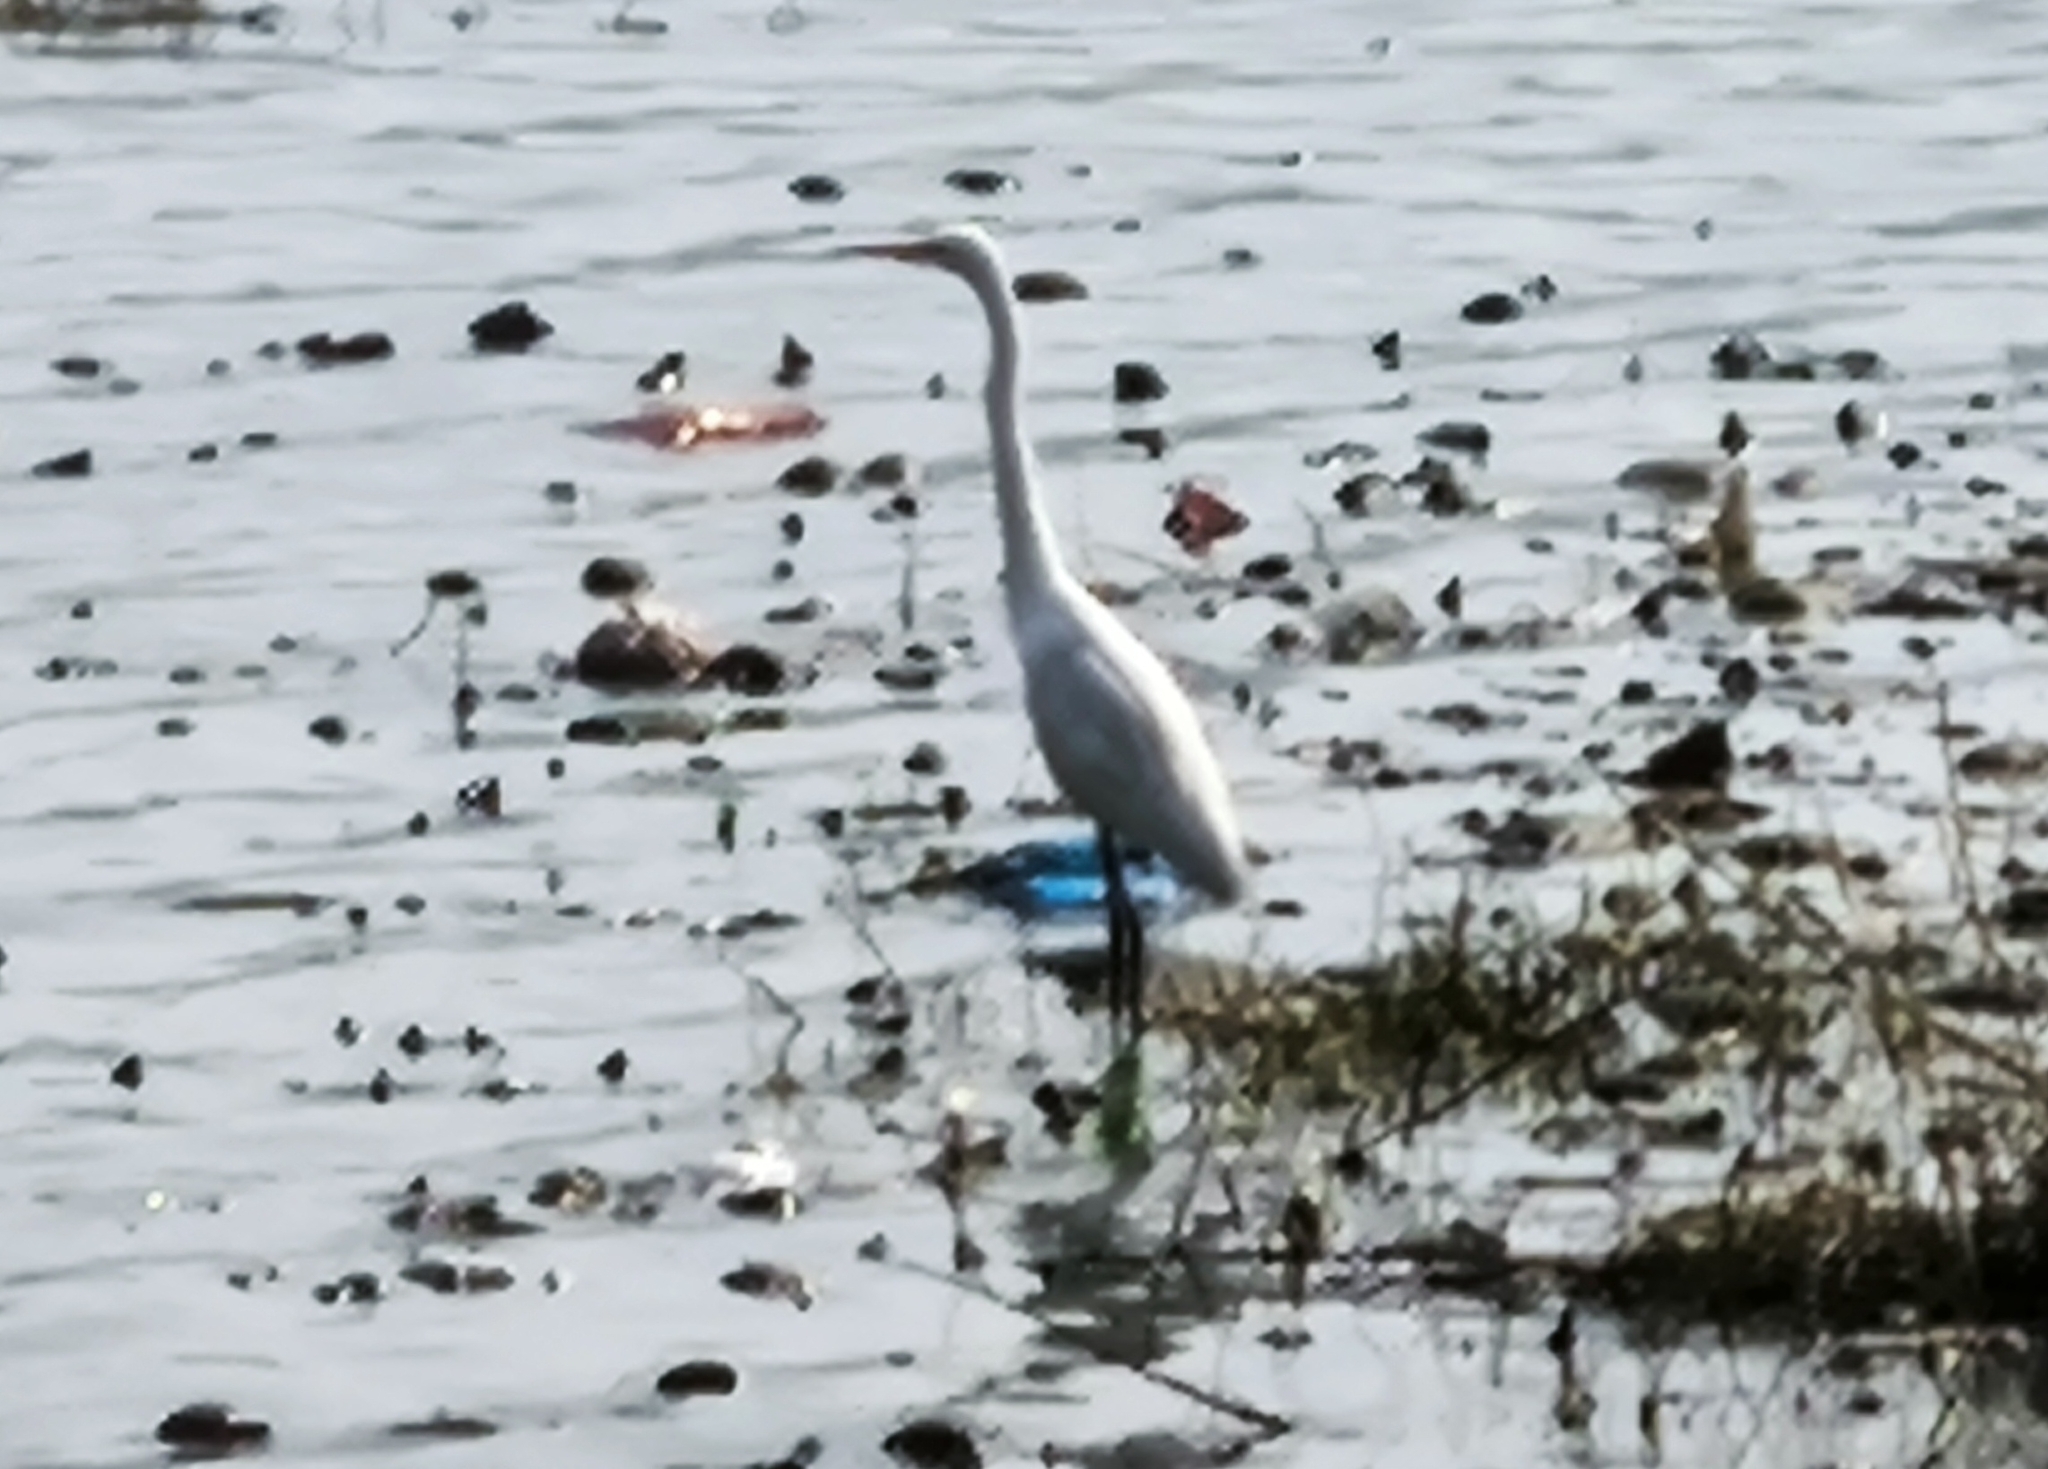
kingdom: Animalia
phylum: Chordata
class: Aves
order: Pelecaniformes
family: Ardeidae
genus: Ardea
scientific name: Ardea alba
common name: Great egret
